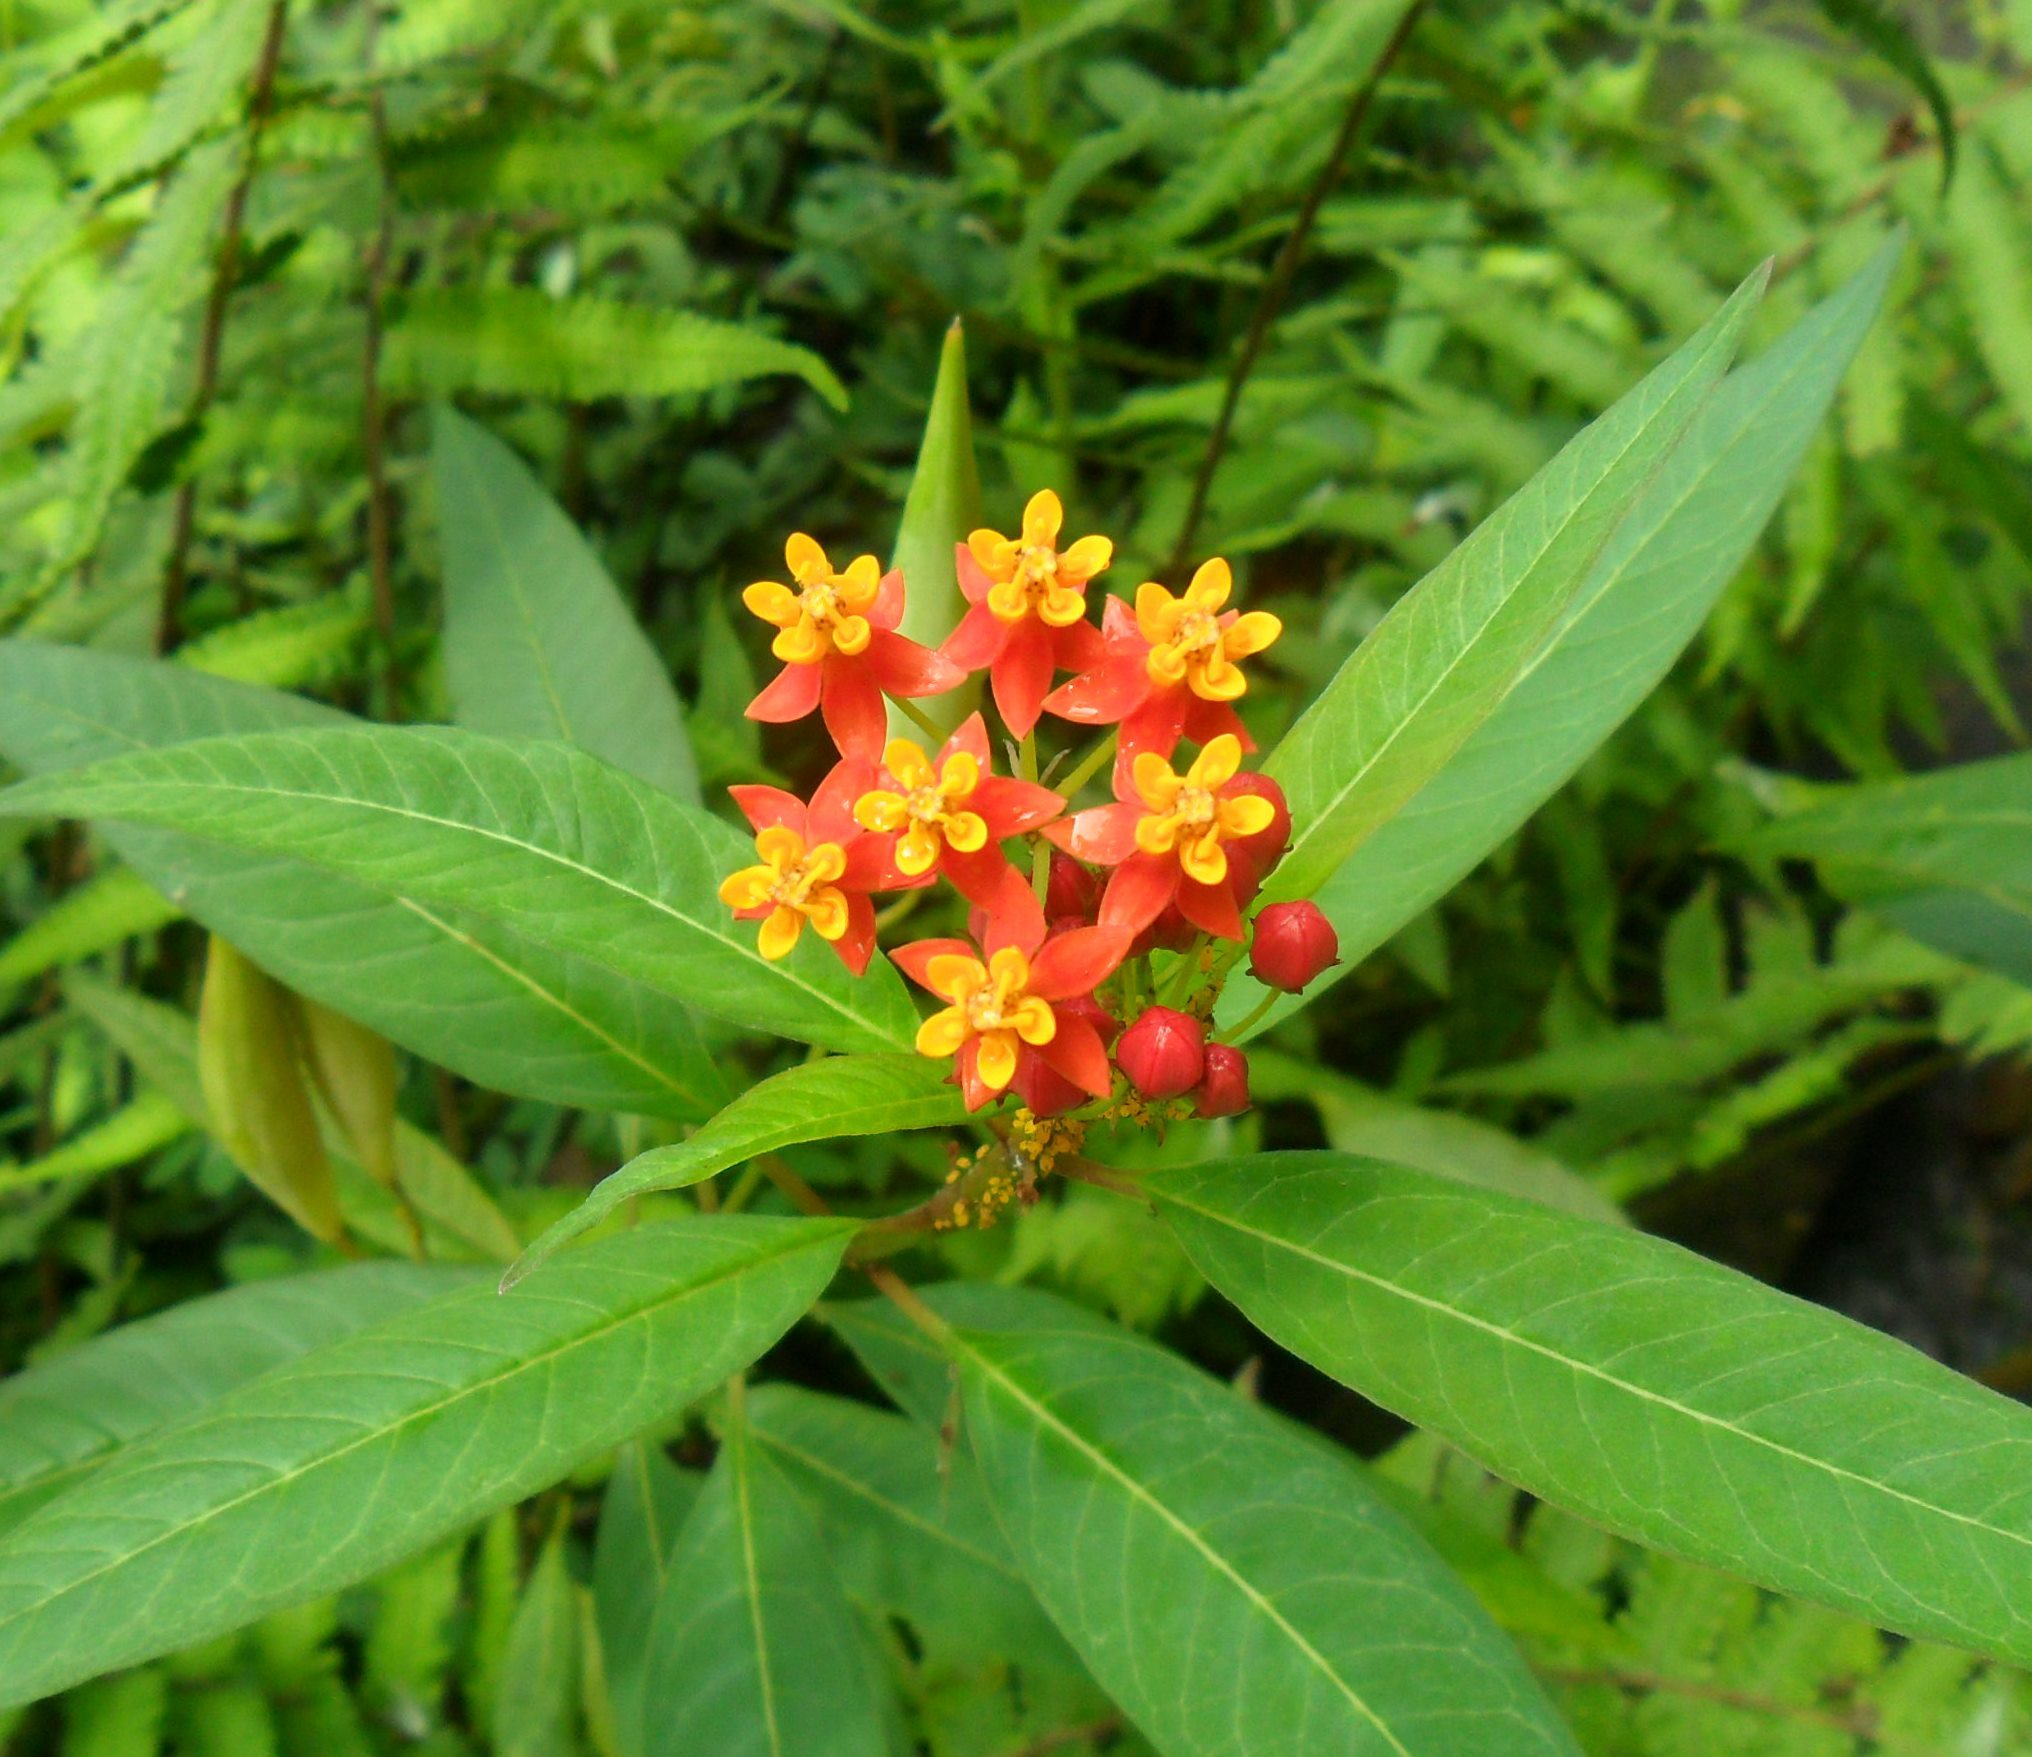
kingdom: Plantae
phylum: Tracheophyta
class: Magnoliopsida
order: Gentianales
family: Apocynaceae
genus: Asclepias
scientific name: Asclepias curassavica
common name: Bloodflower
